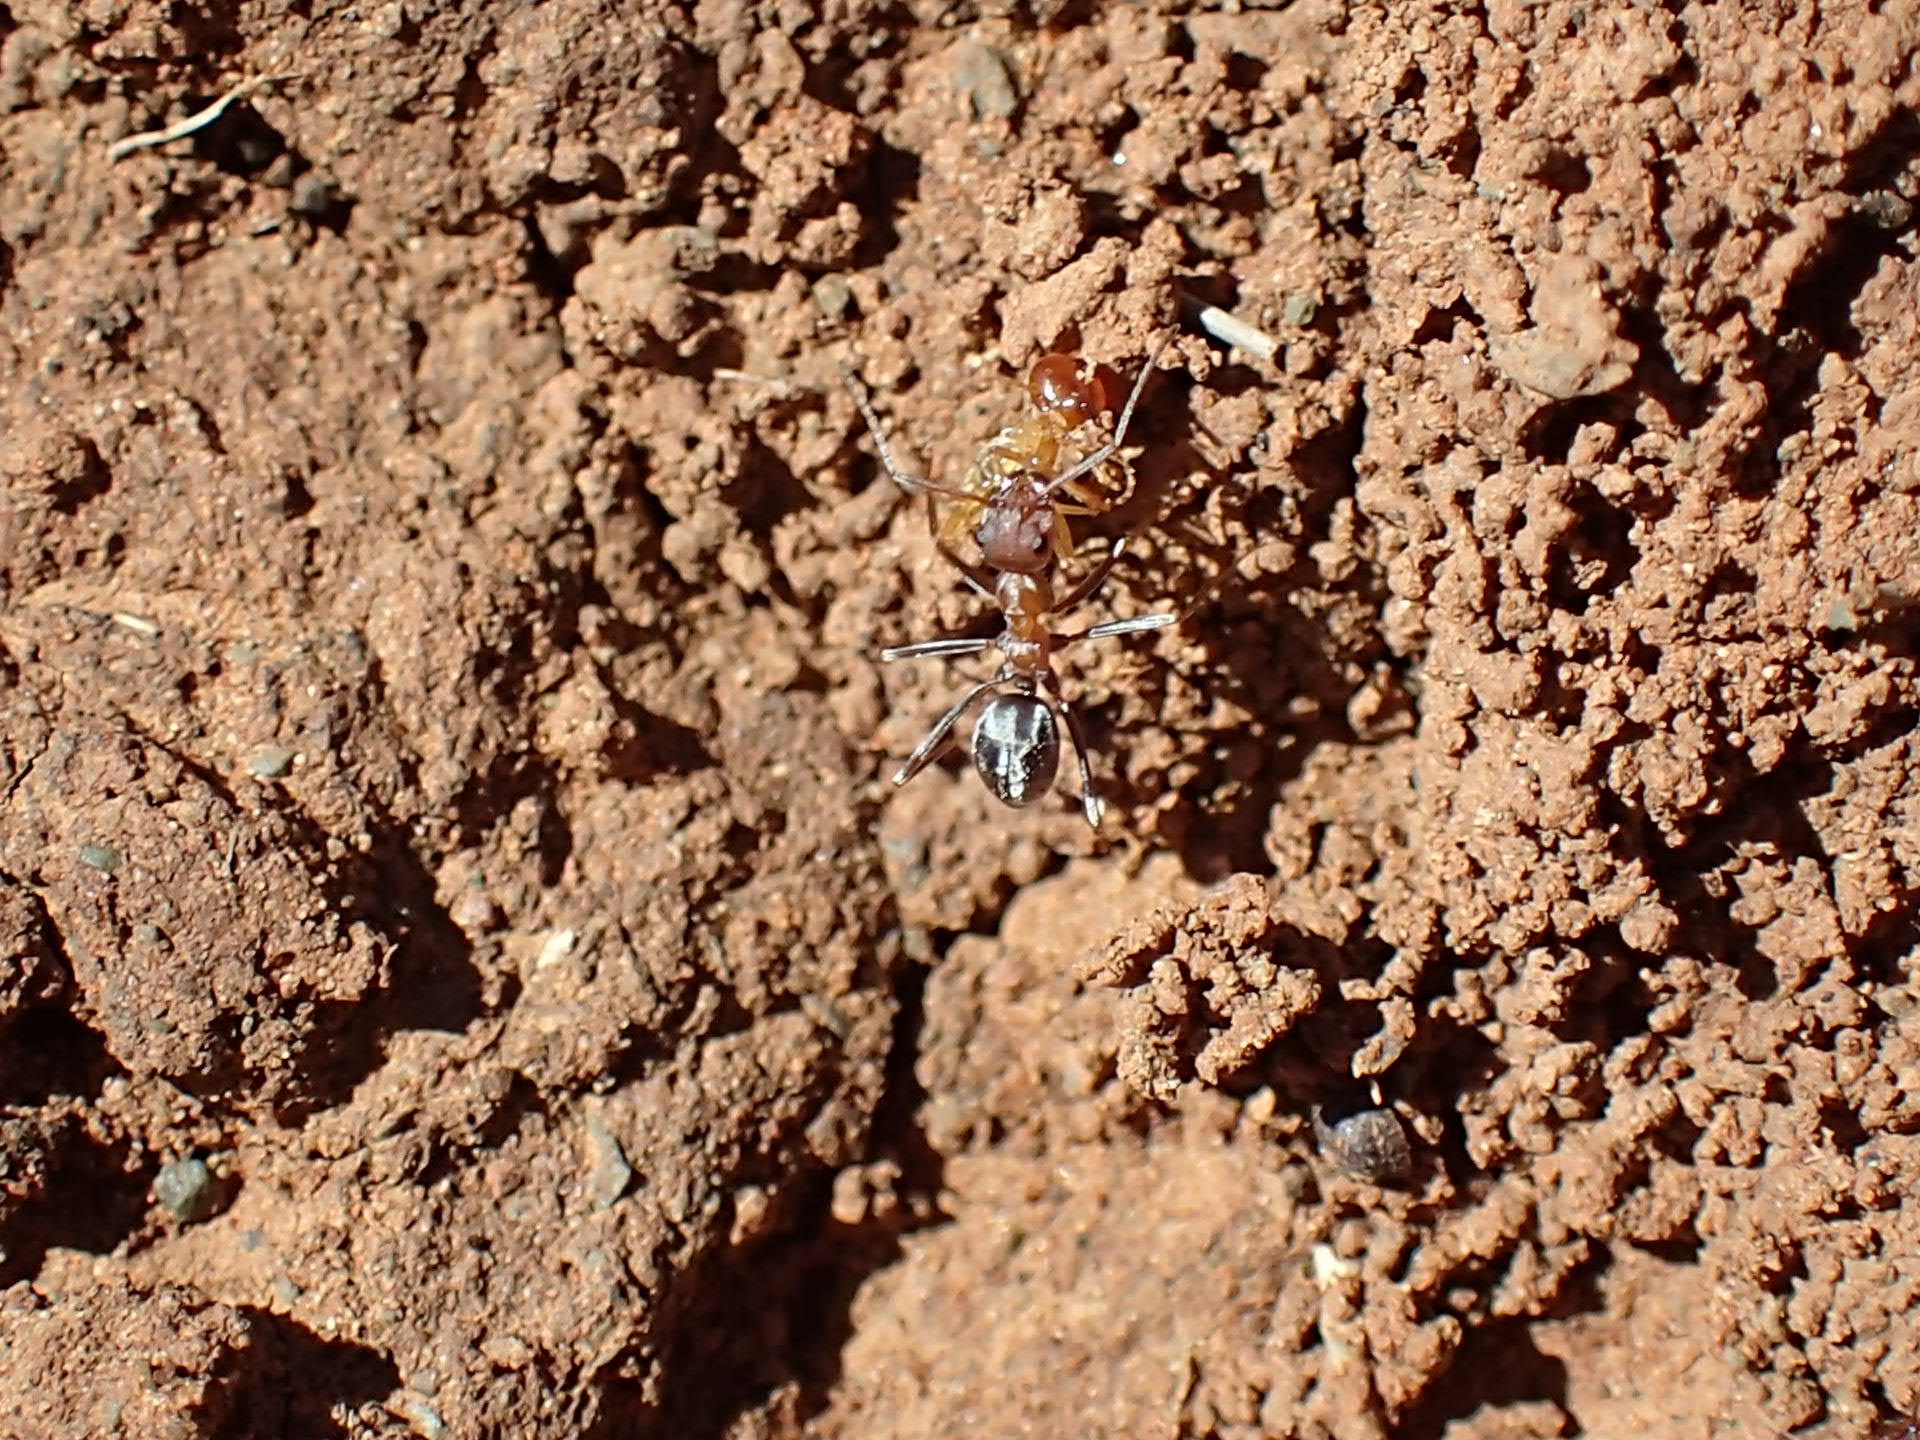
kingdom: Animalia
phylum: Arthropoda
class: Insecta
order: Hymenoptera
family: Formicidae
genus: Anoplolepis
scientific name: Anoplolepis custodiens
